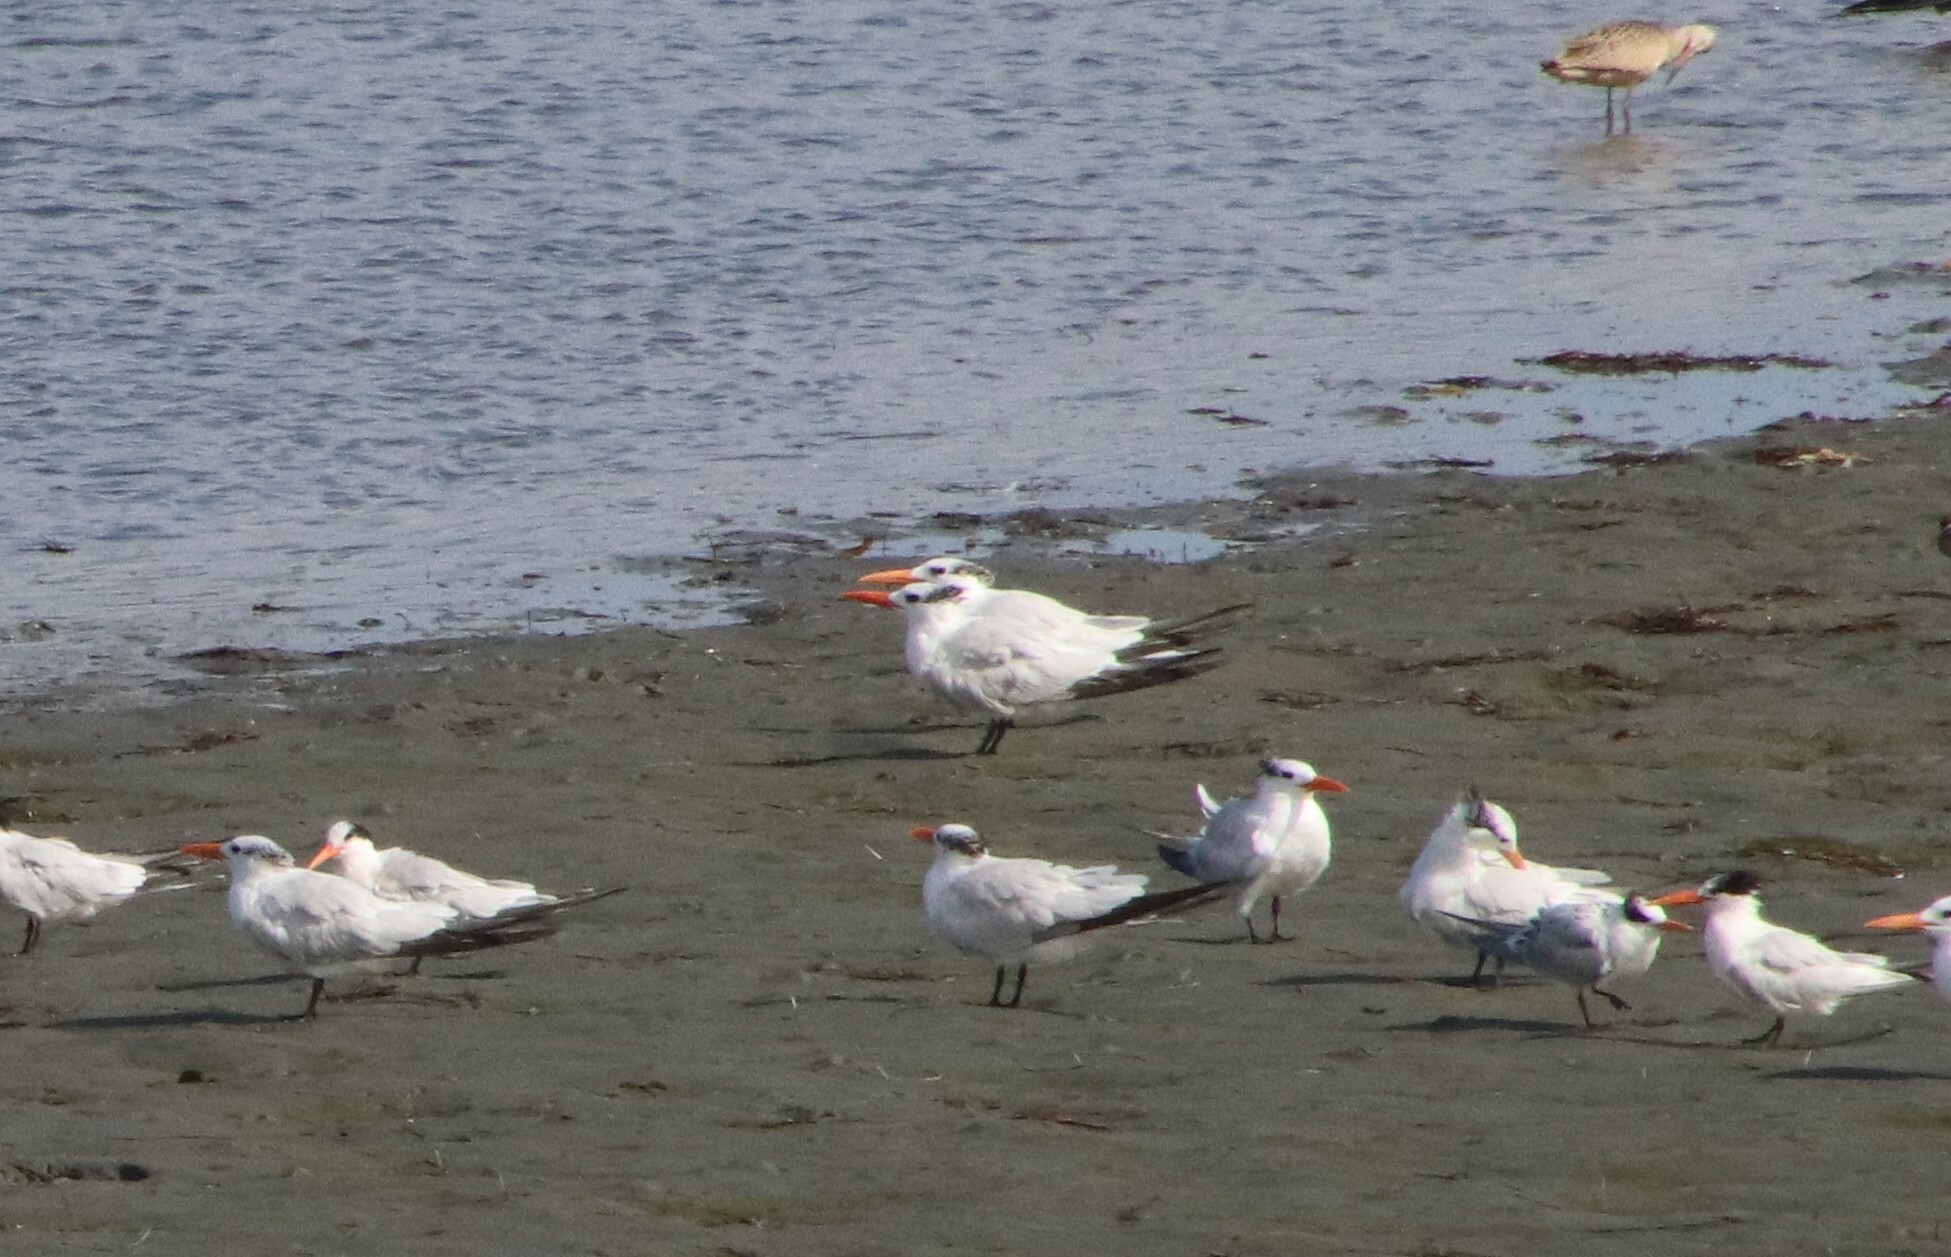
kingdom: Animalia
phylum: Chordata
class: Aves
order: Charadriiformes
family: Laridae
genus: Thalasseus
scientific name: Thalasseus maximus
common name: Royal tern
